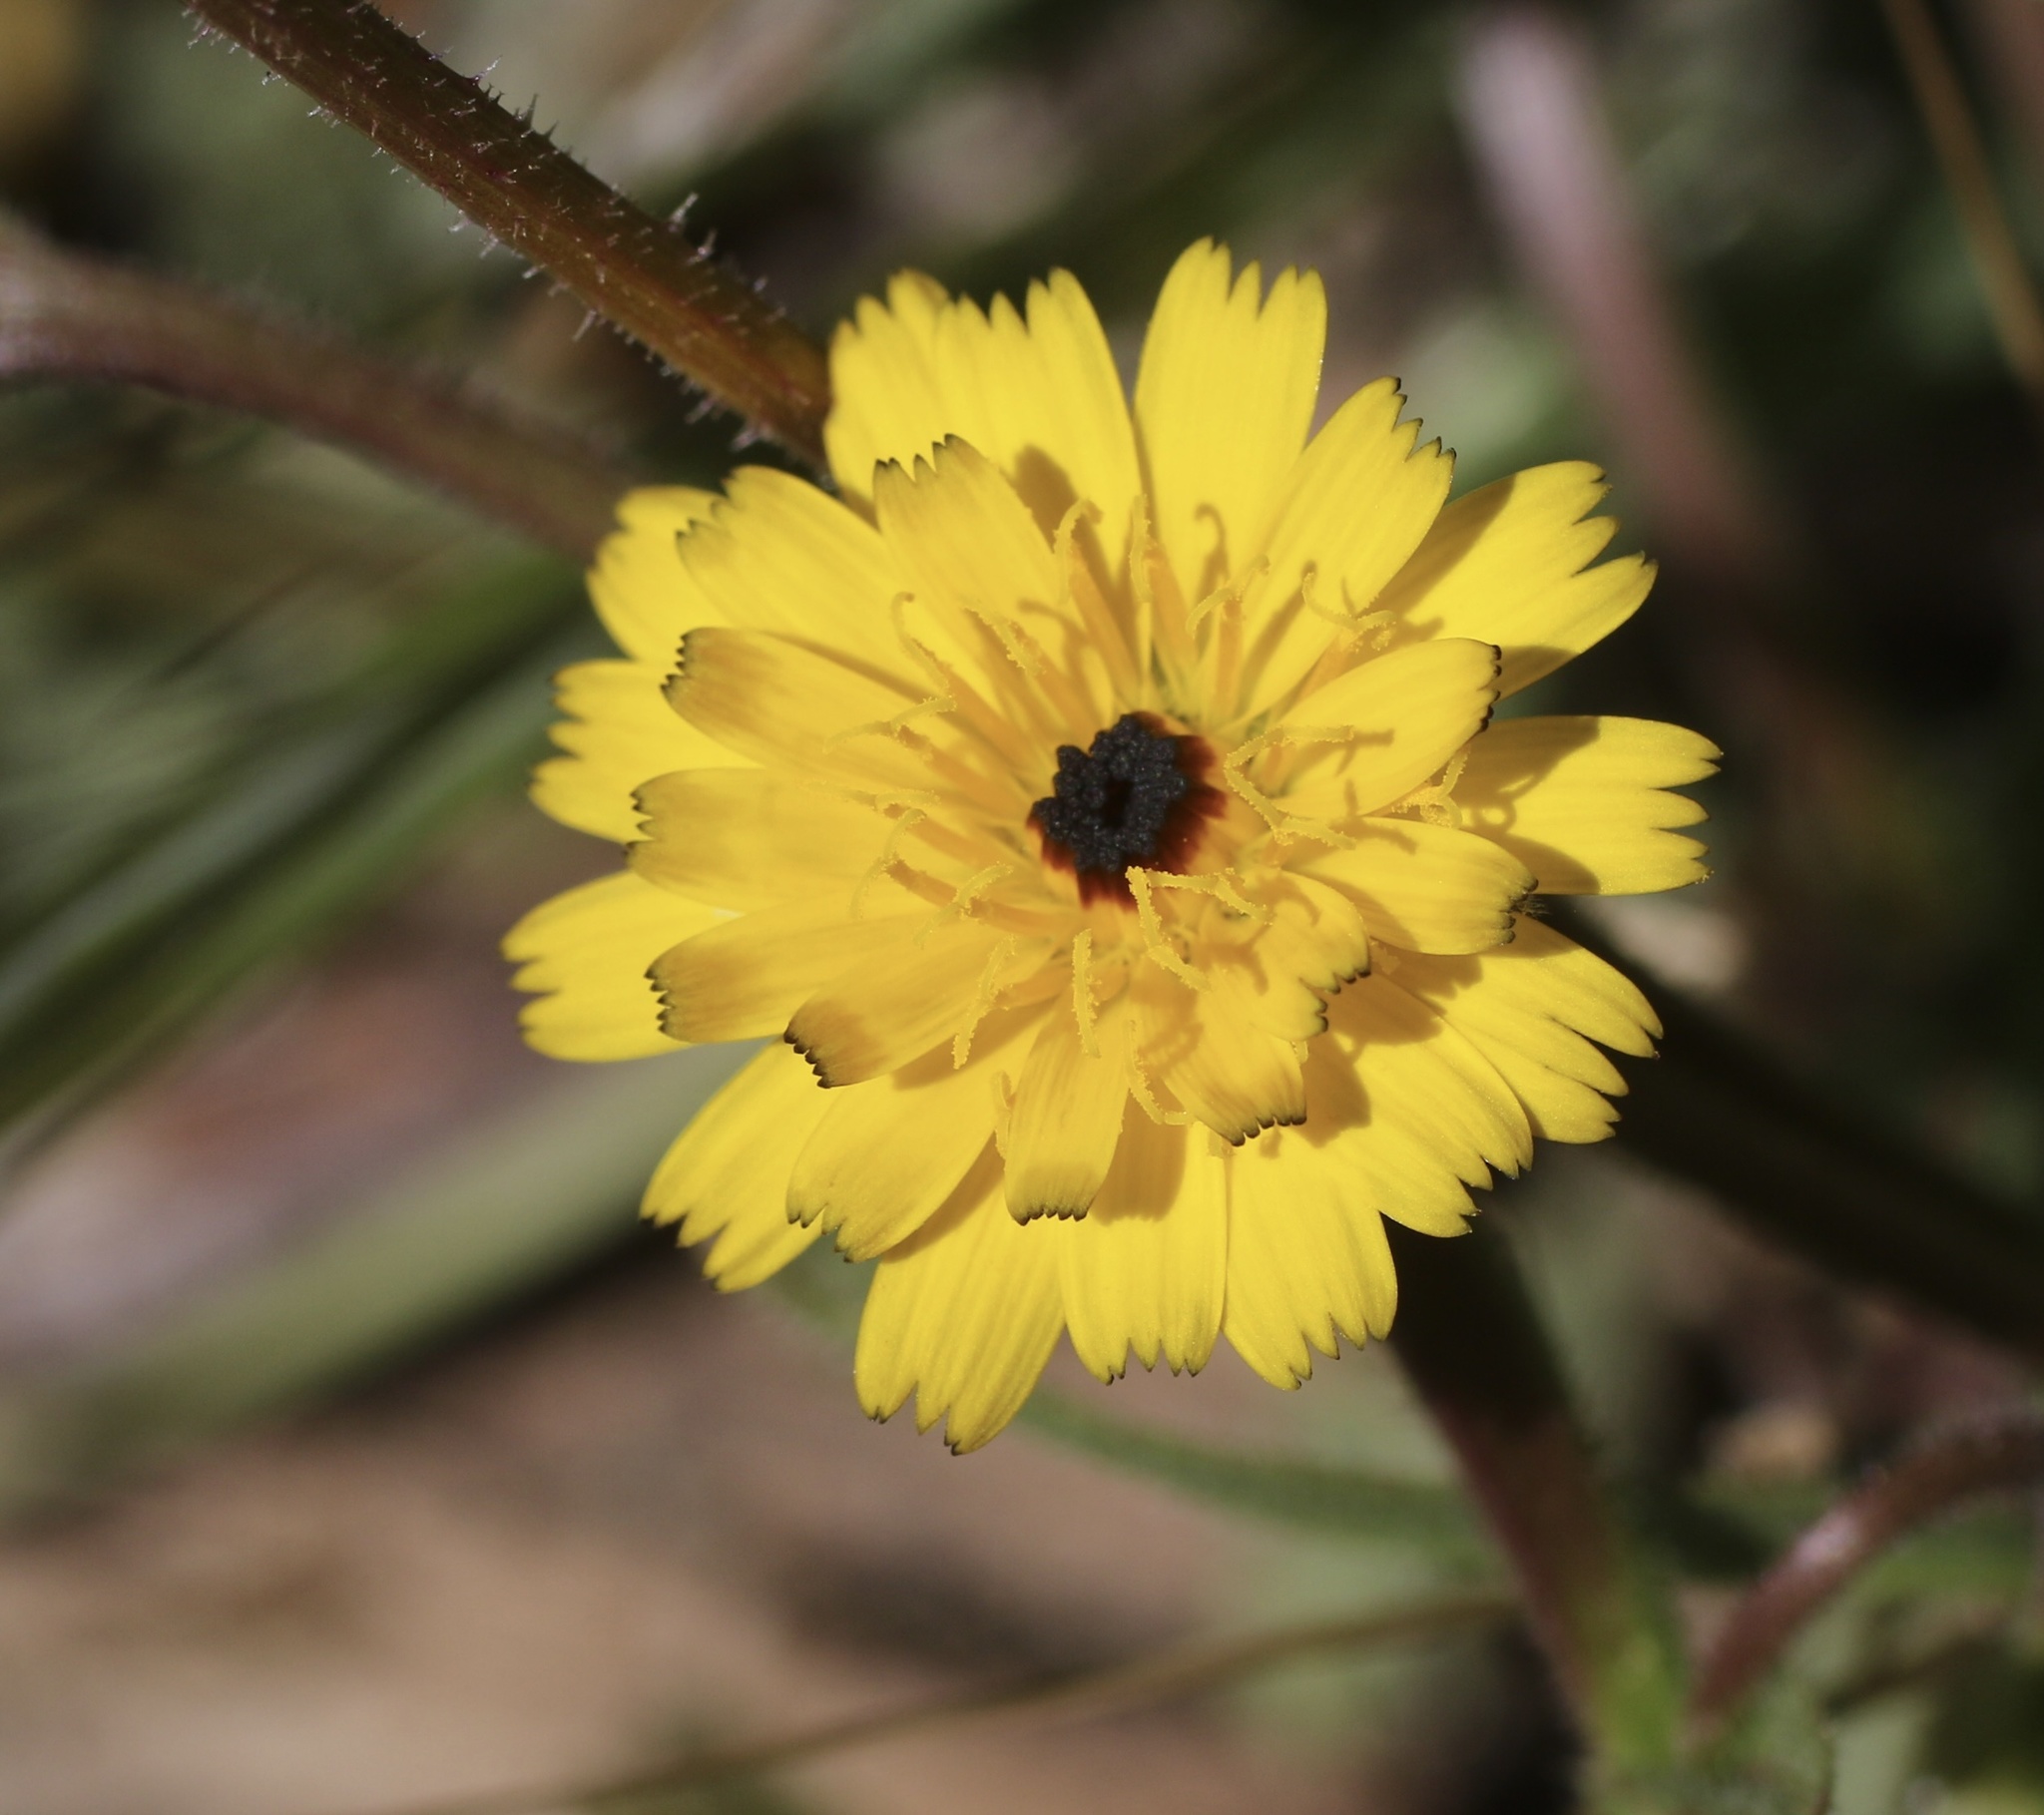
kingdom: Plantae
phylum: Tracheophyta
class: Magnoliopsida
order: Asterales
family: Asteraceae
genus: Hedypnois
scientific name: Hedypnois rhagadioloides
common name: Cretan weed
